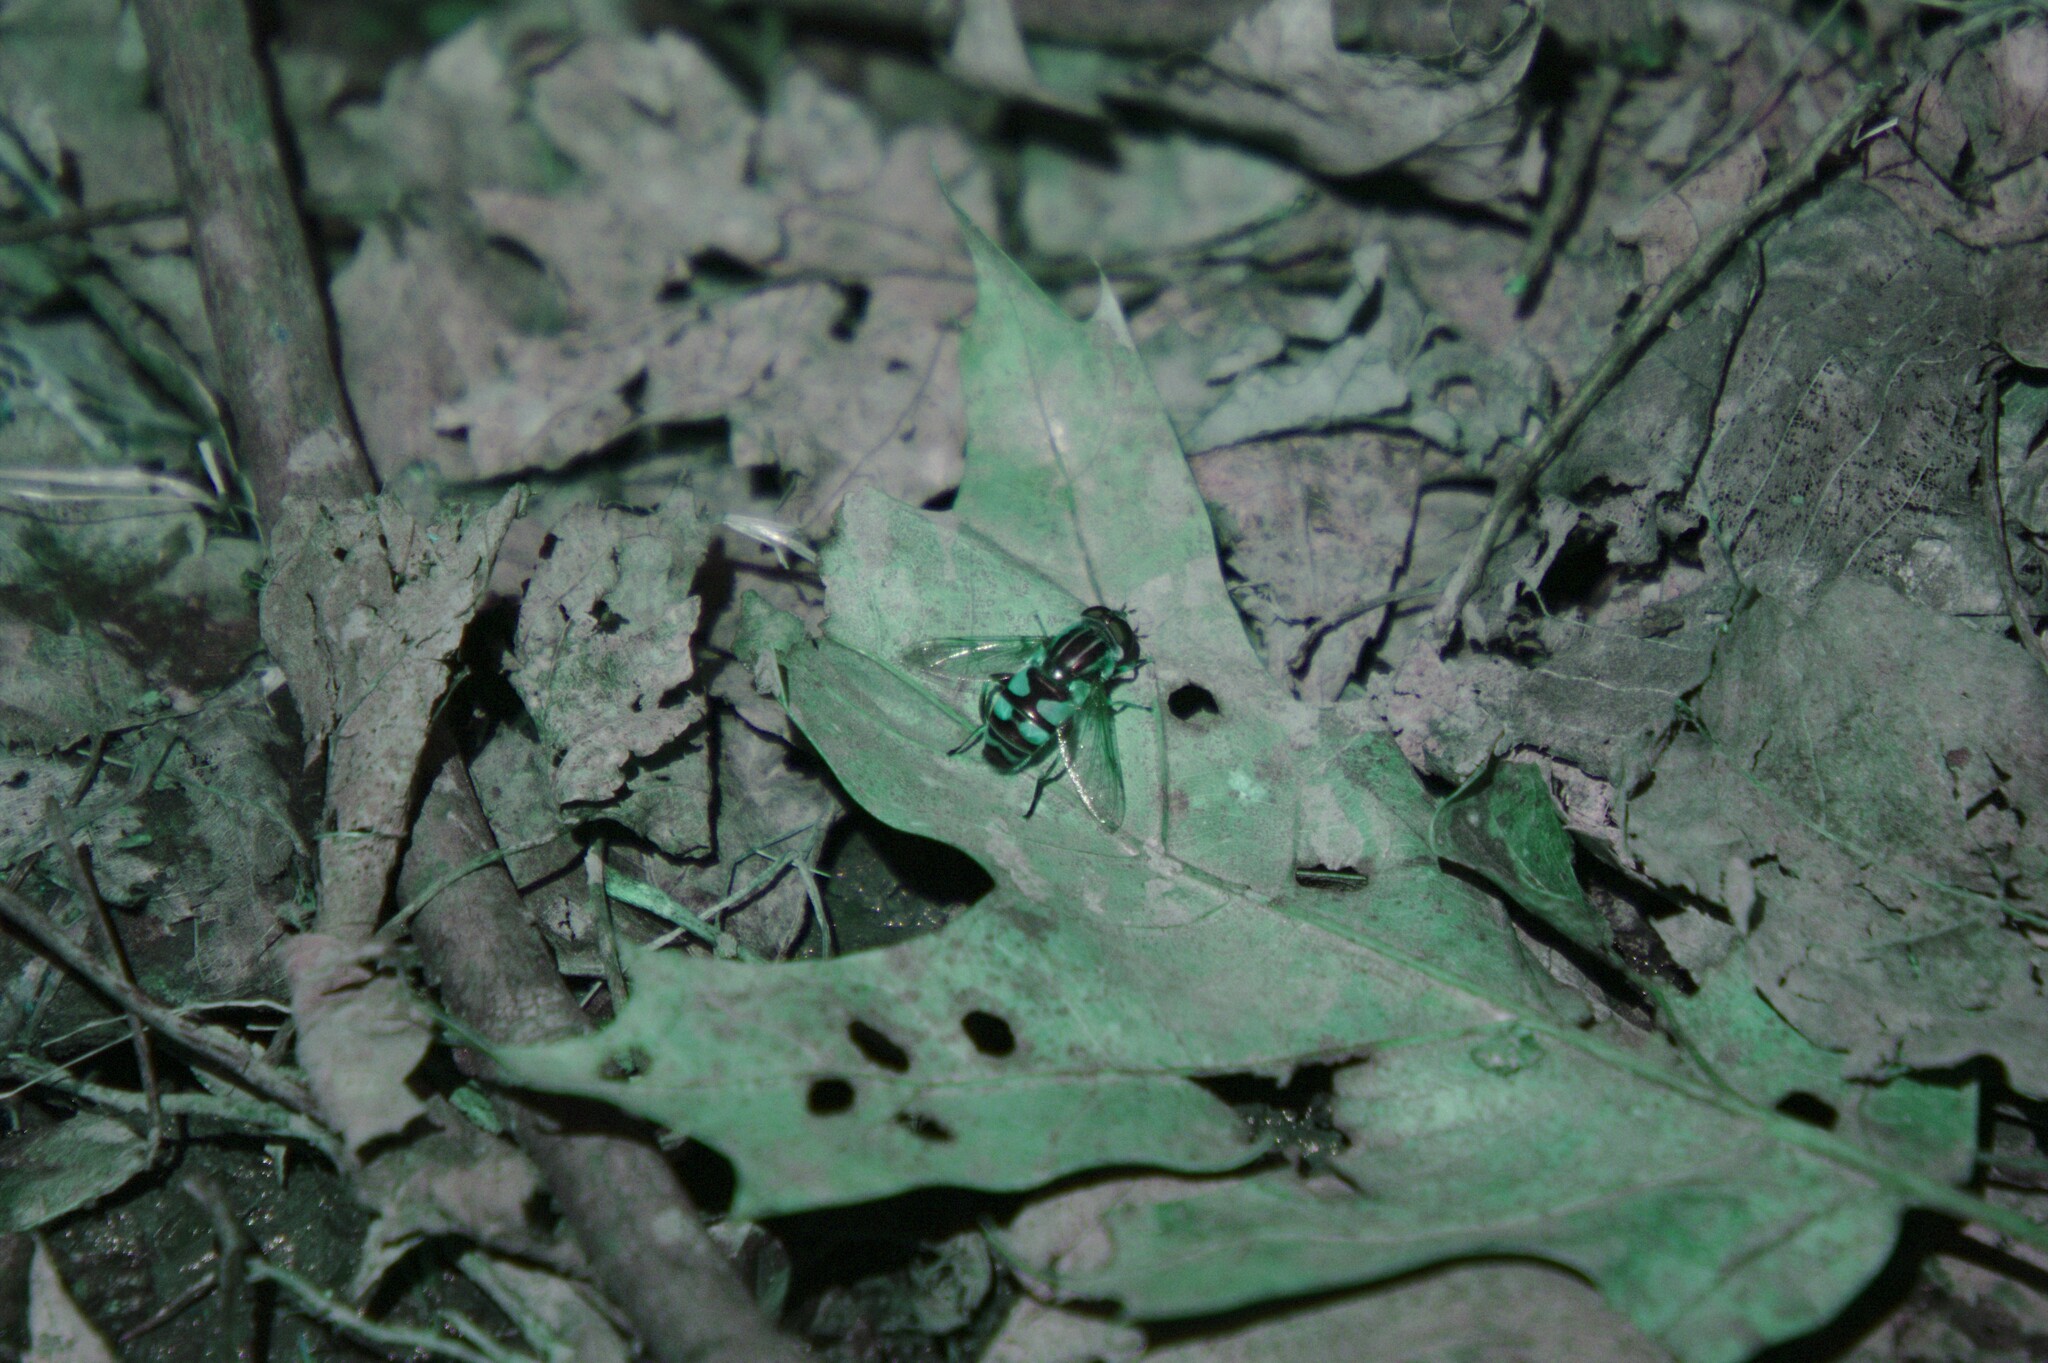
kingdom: Animalia
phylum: Arthropoda
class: Insecta
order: Diptera
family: Syrphidae
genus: Helophilus
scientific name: Helophilus fasciatus
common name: Narrow-headed marsh fly
